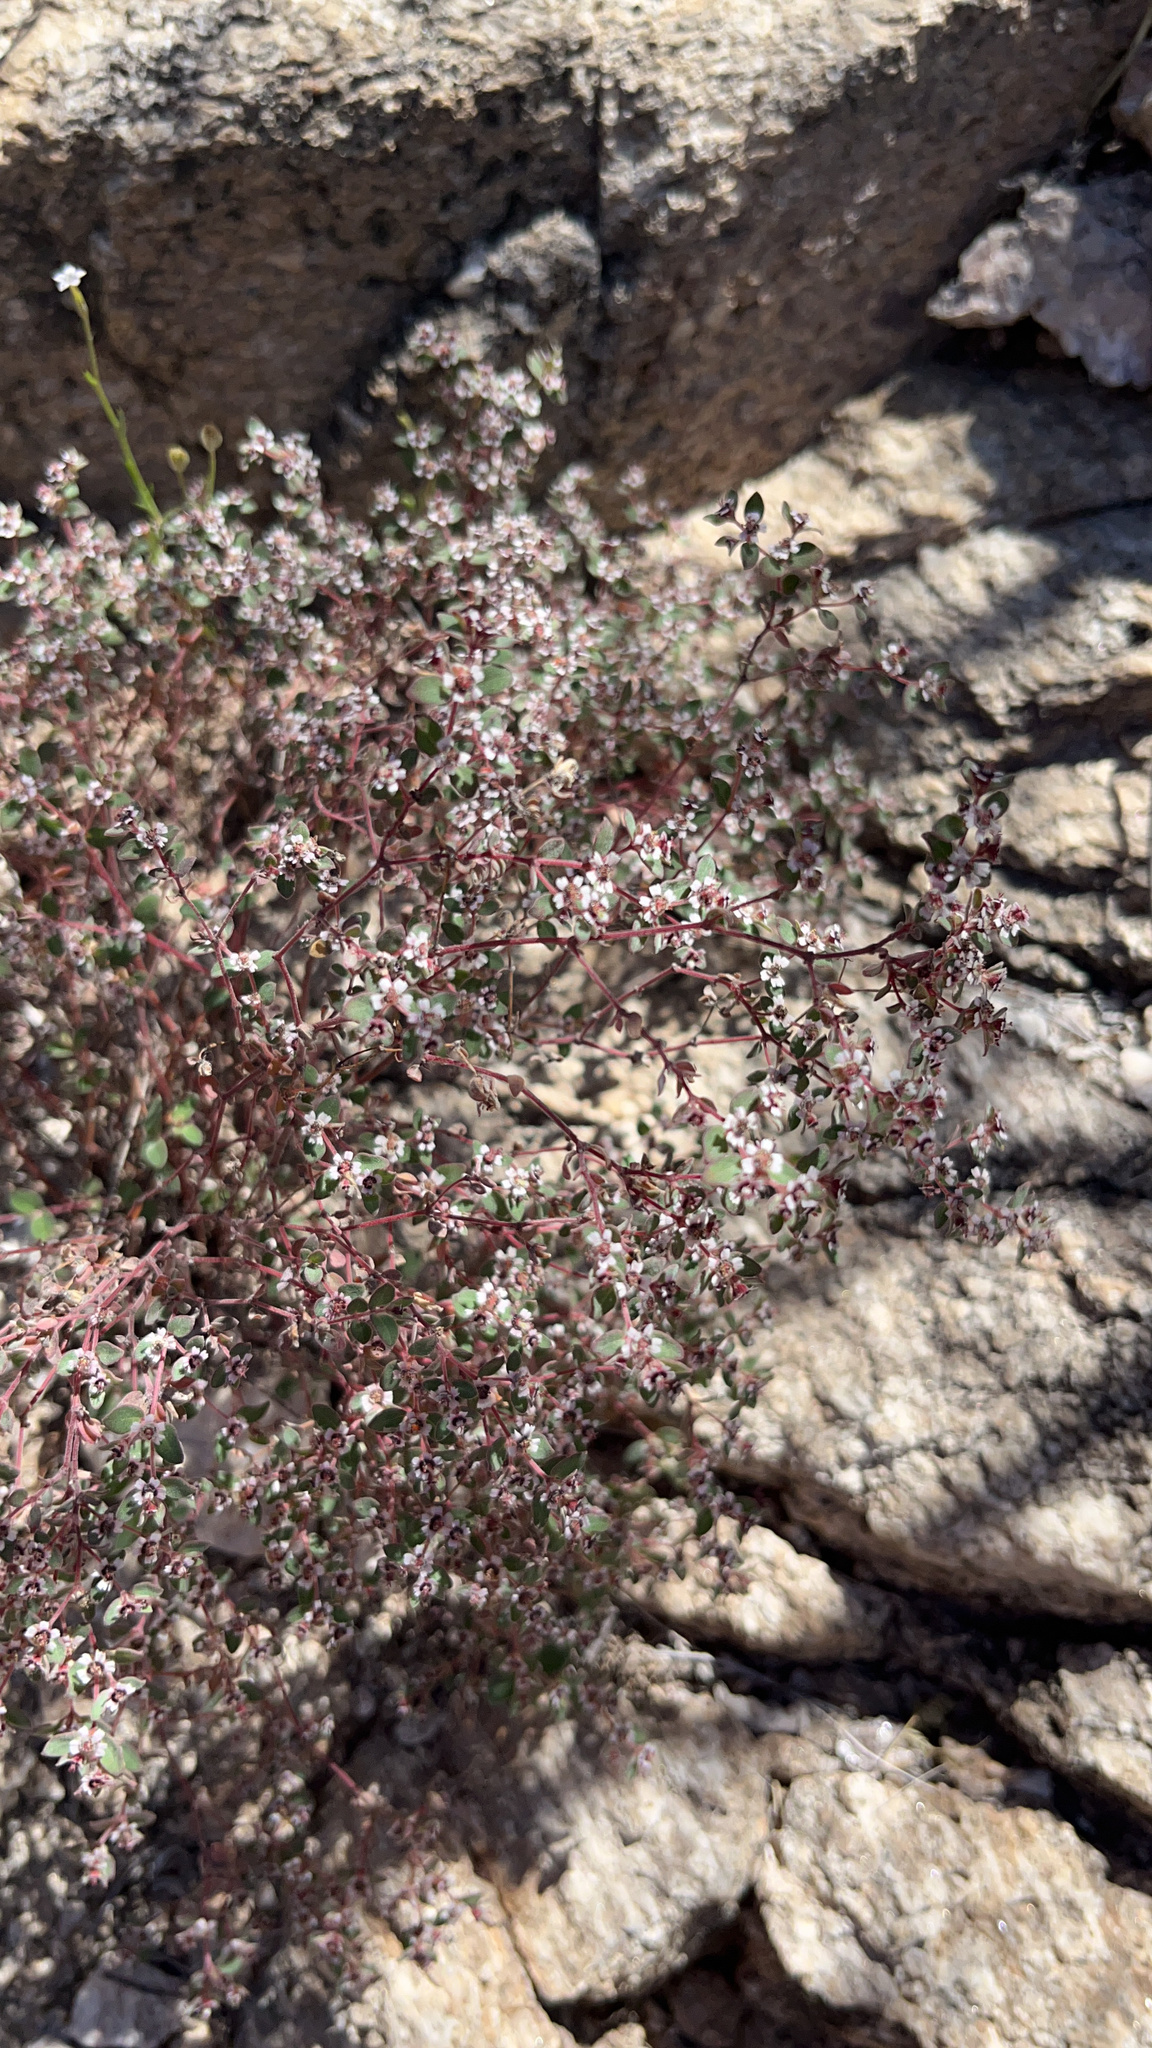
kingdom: Plantae
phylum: Tracheophyta
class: Magnoliopsida
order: Malpighiales
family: Euphorbiaceae
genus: Euphorbia
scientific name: Euphorbia melanadenia
